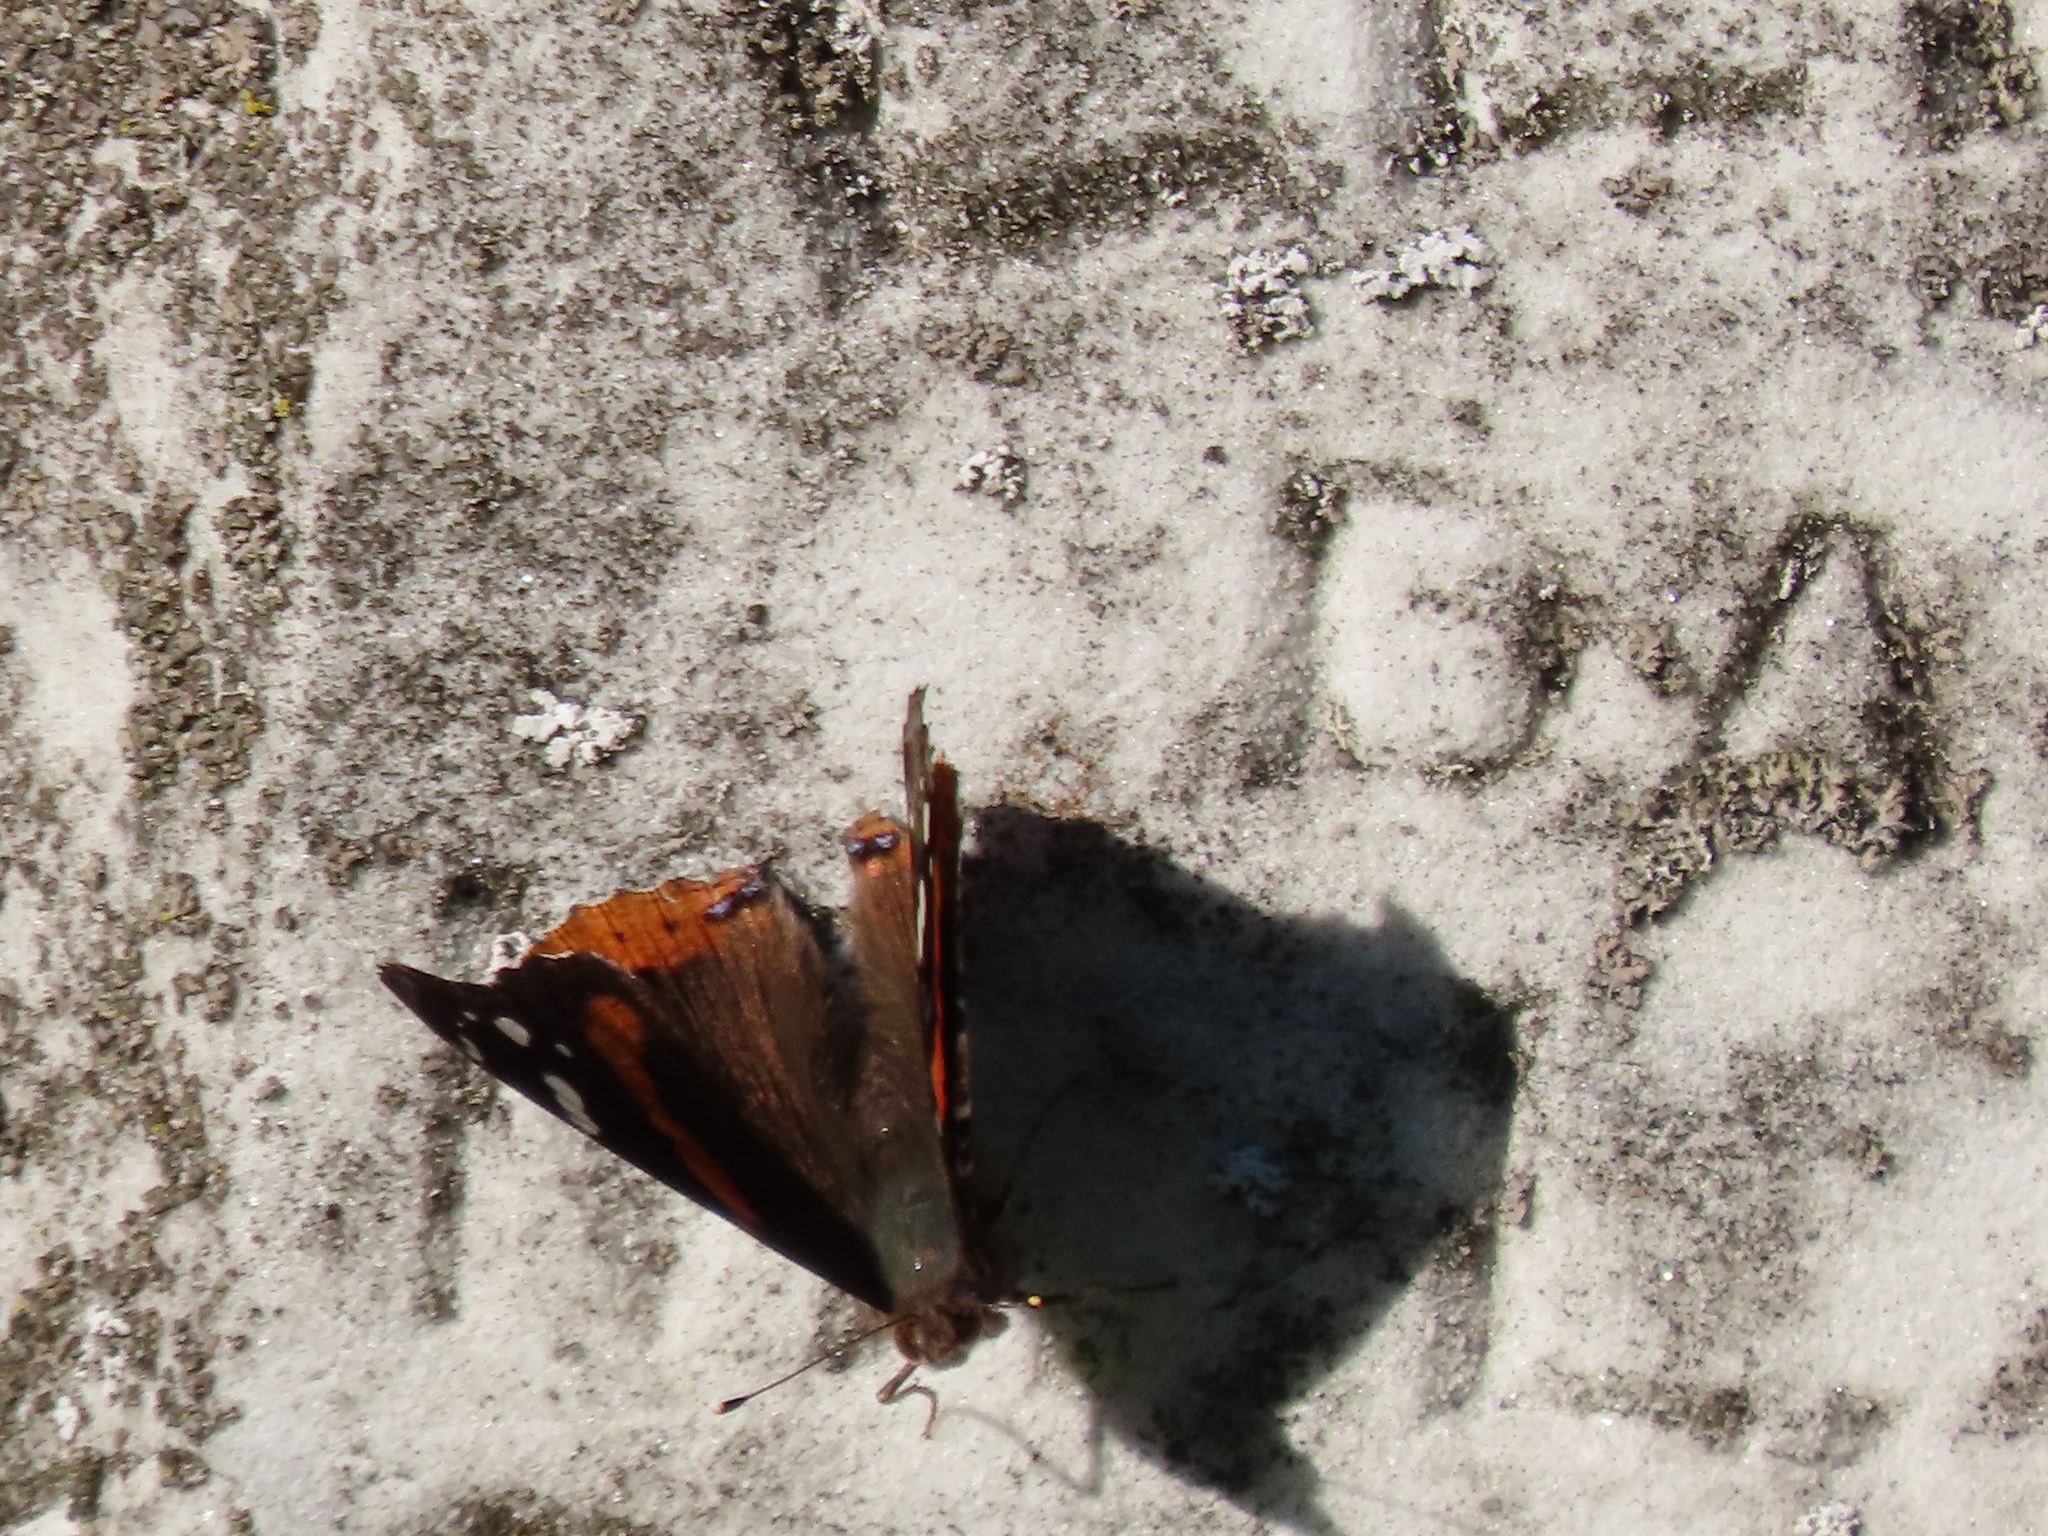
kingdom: Animalia
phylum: Arthropoda
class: Insecta
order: Lepidoptera
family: Nymphalidae
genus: Vanessa
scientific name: Vanessa annabella
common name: West coast lady
